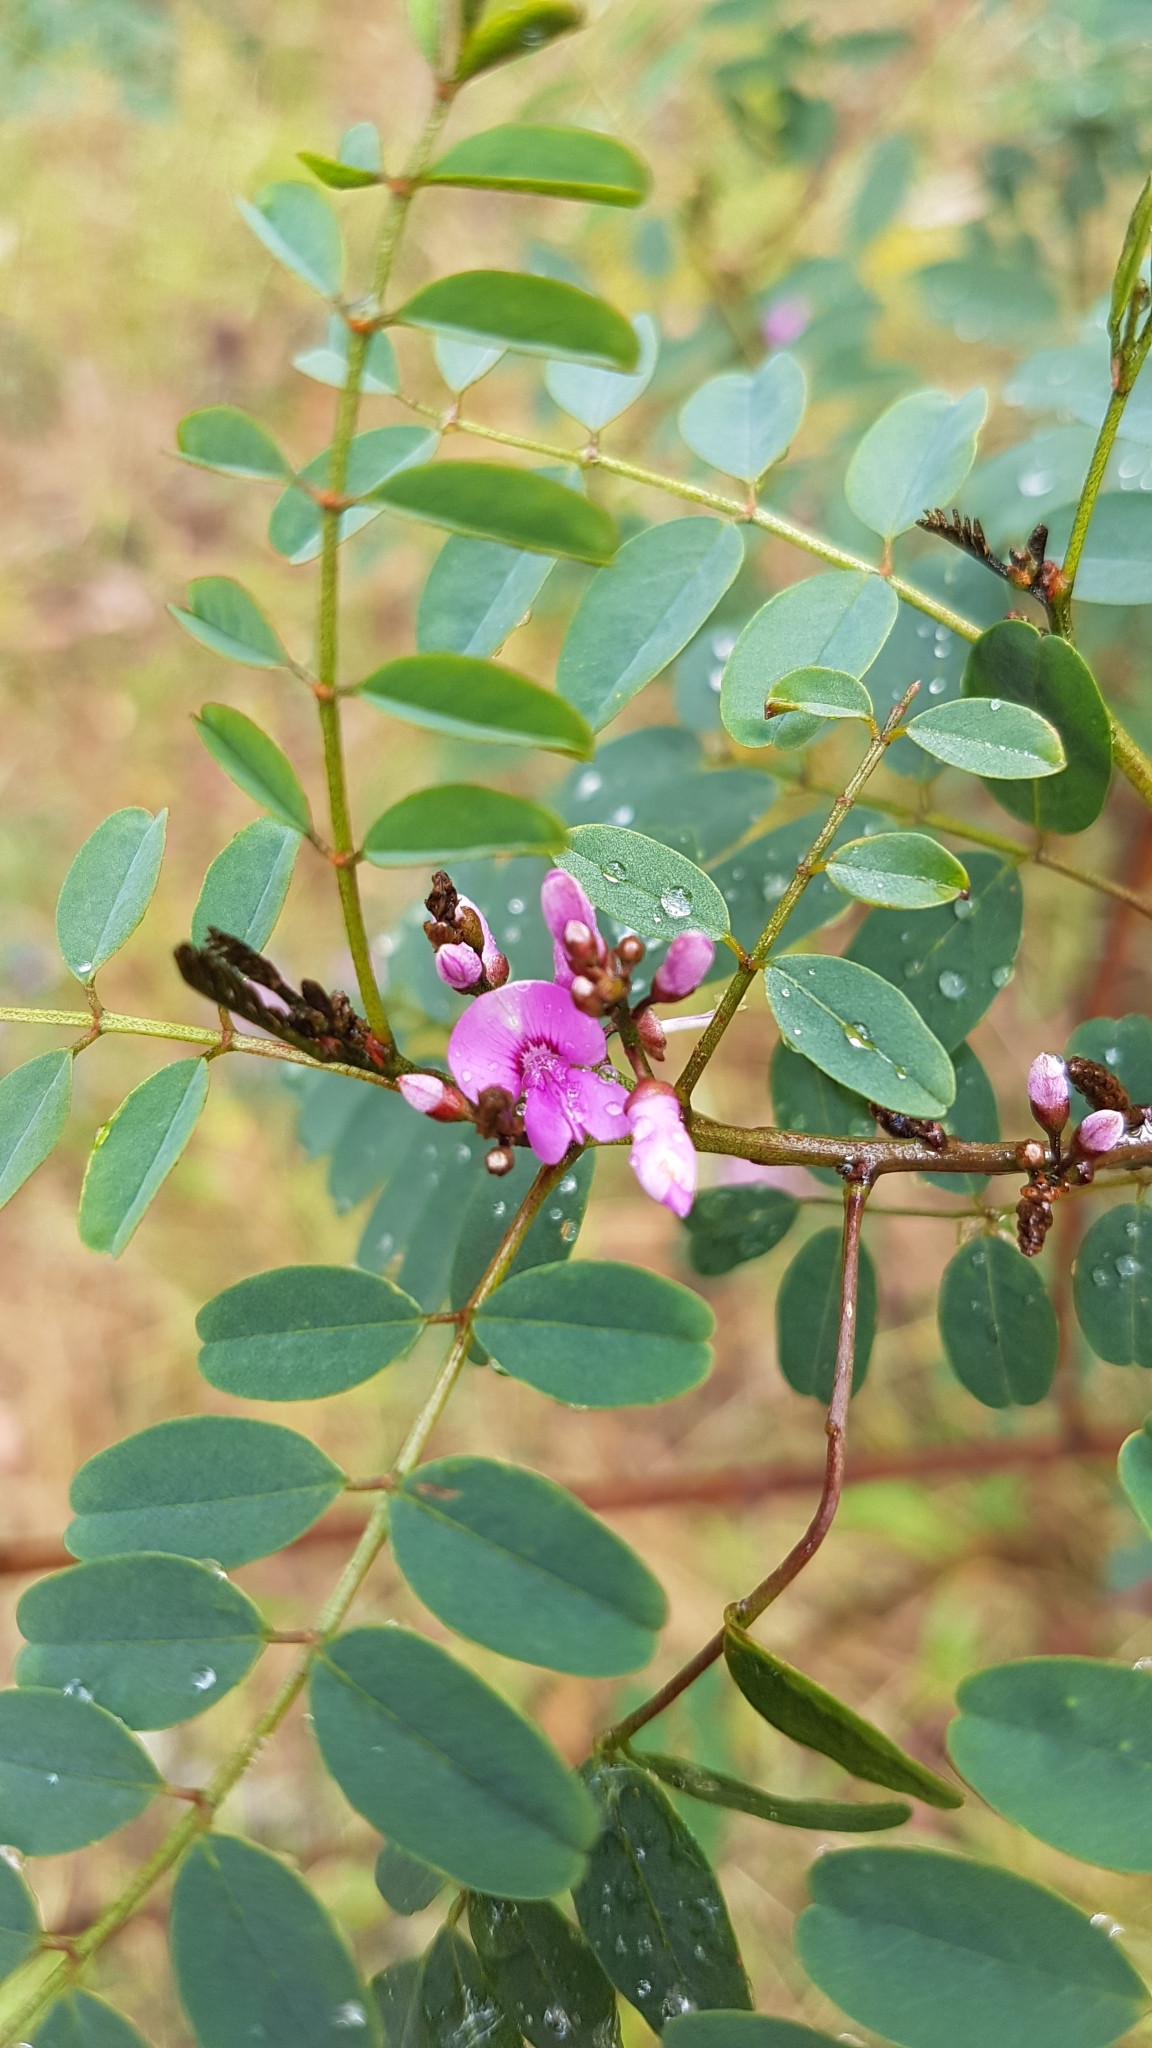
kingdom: Plantae
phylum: Tracheophyta
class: Magnoliopsida
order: Fabales
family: Fabaceae
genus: Indigofera
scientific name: Indigofera australis
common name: Australian indigo
